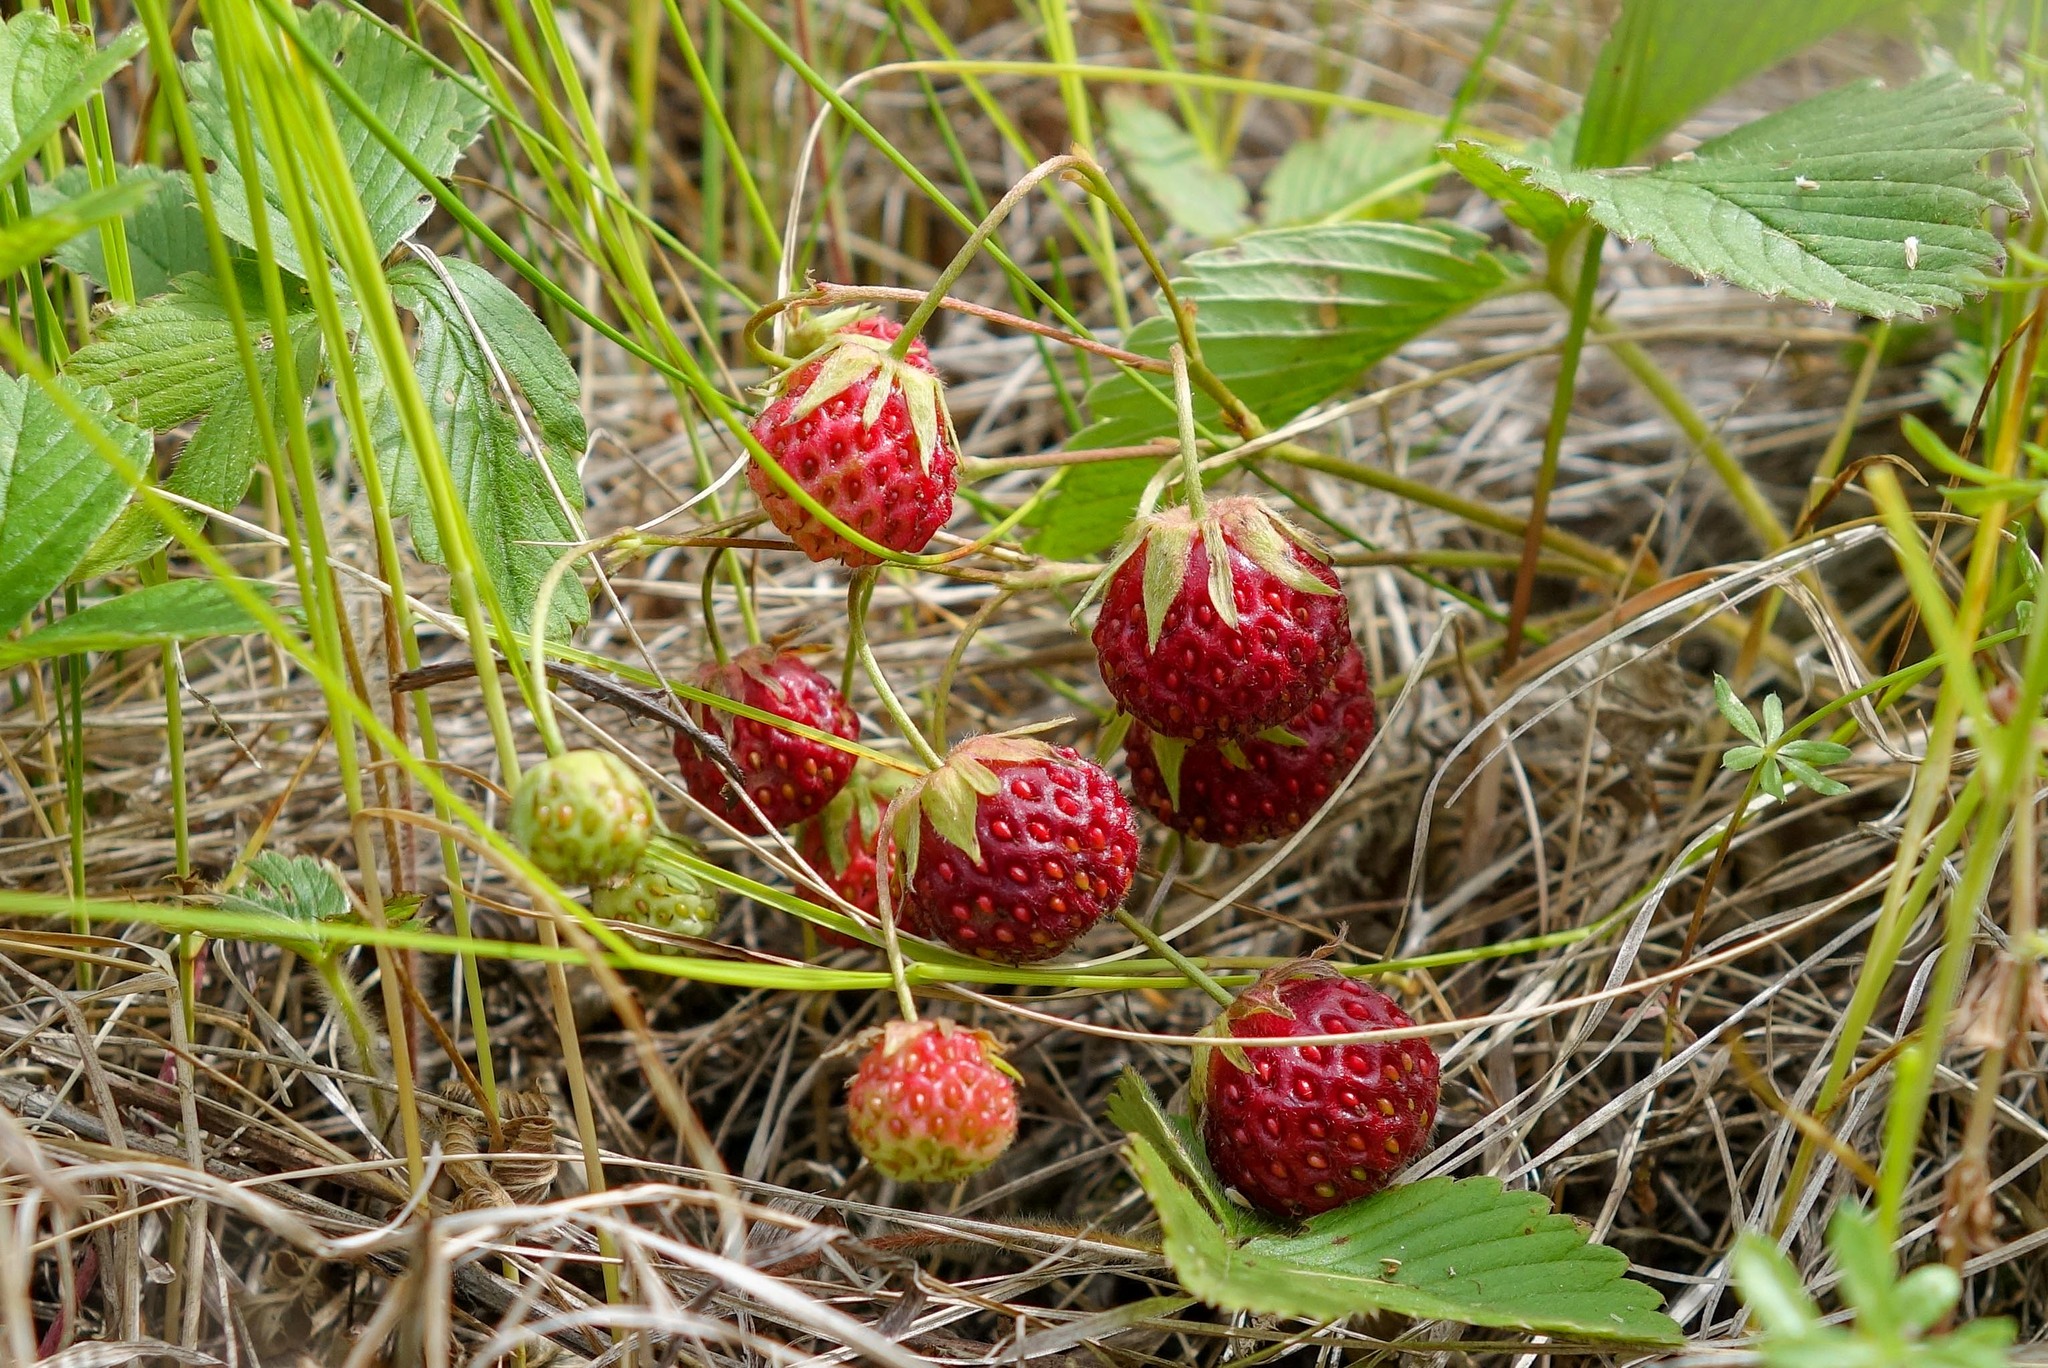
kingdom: Plantae
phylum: Tracheophyta
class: Magnoliopsida
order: Rosales
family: Rosaceae
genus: Fragaria
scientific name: Fragaria viridis
